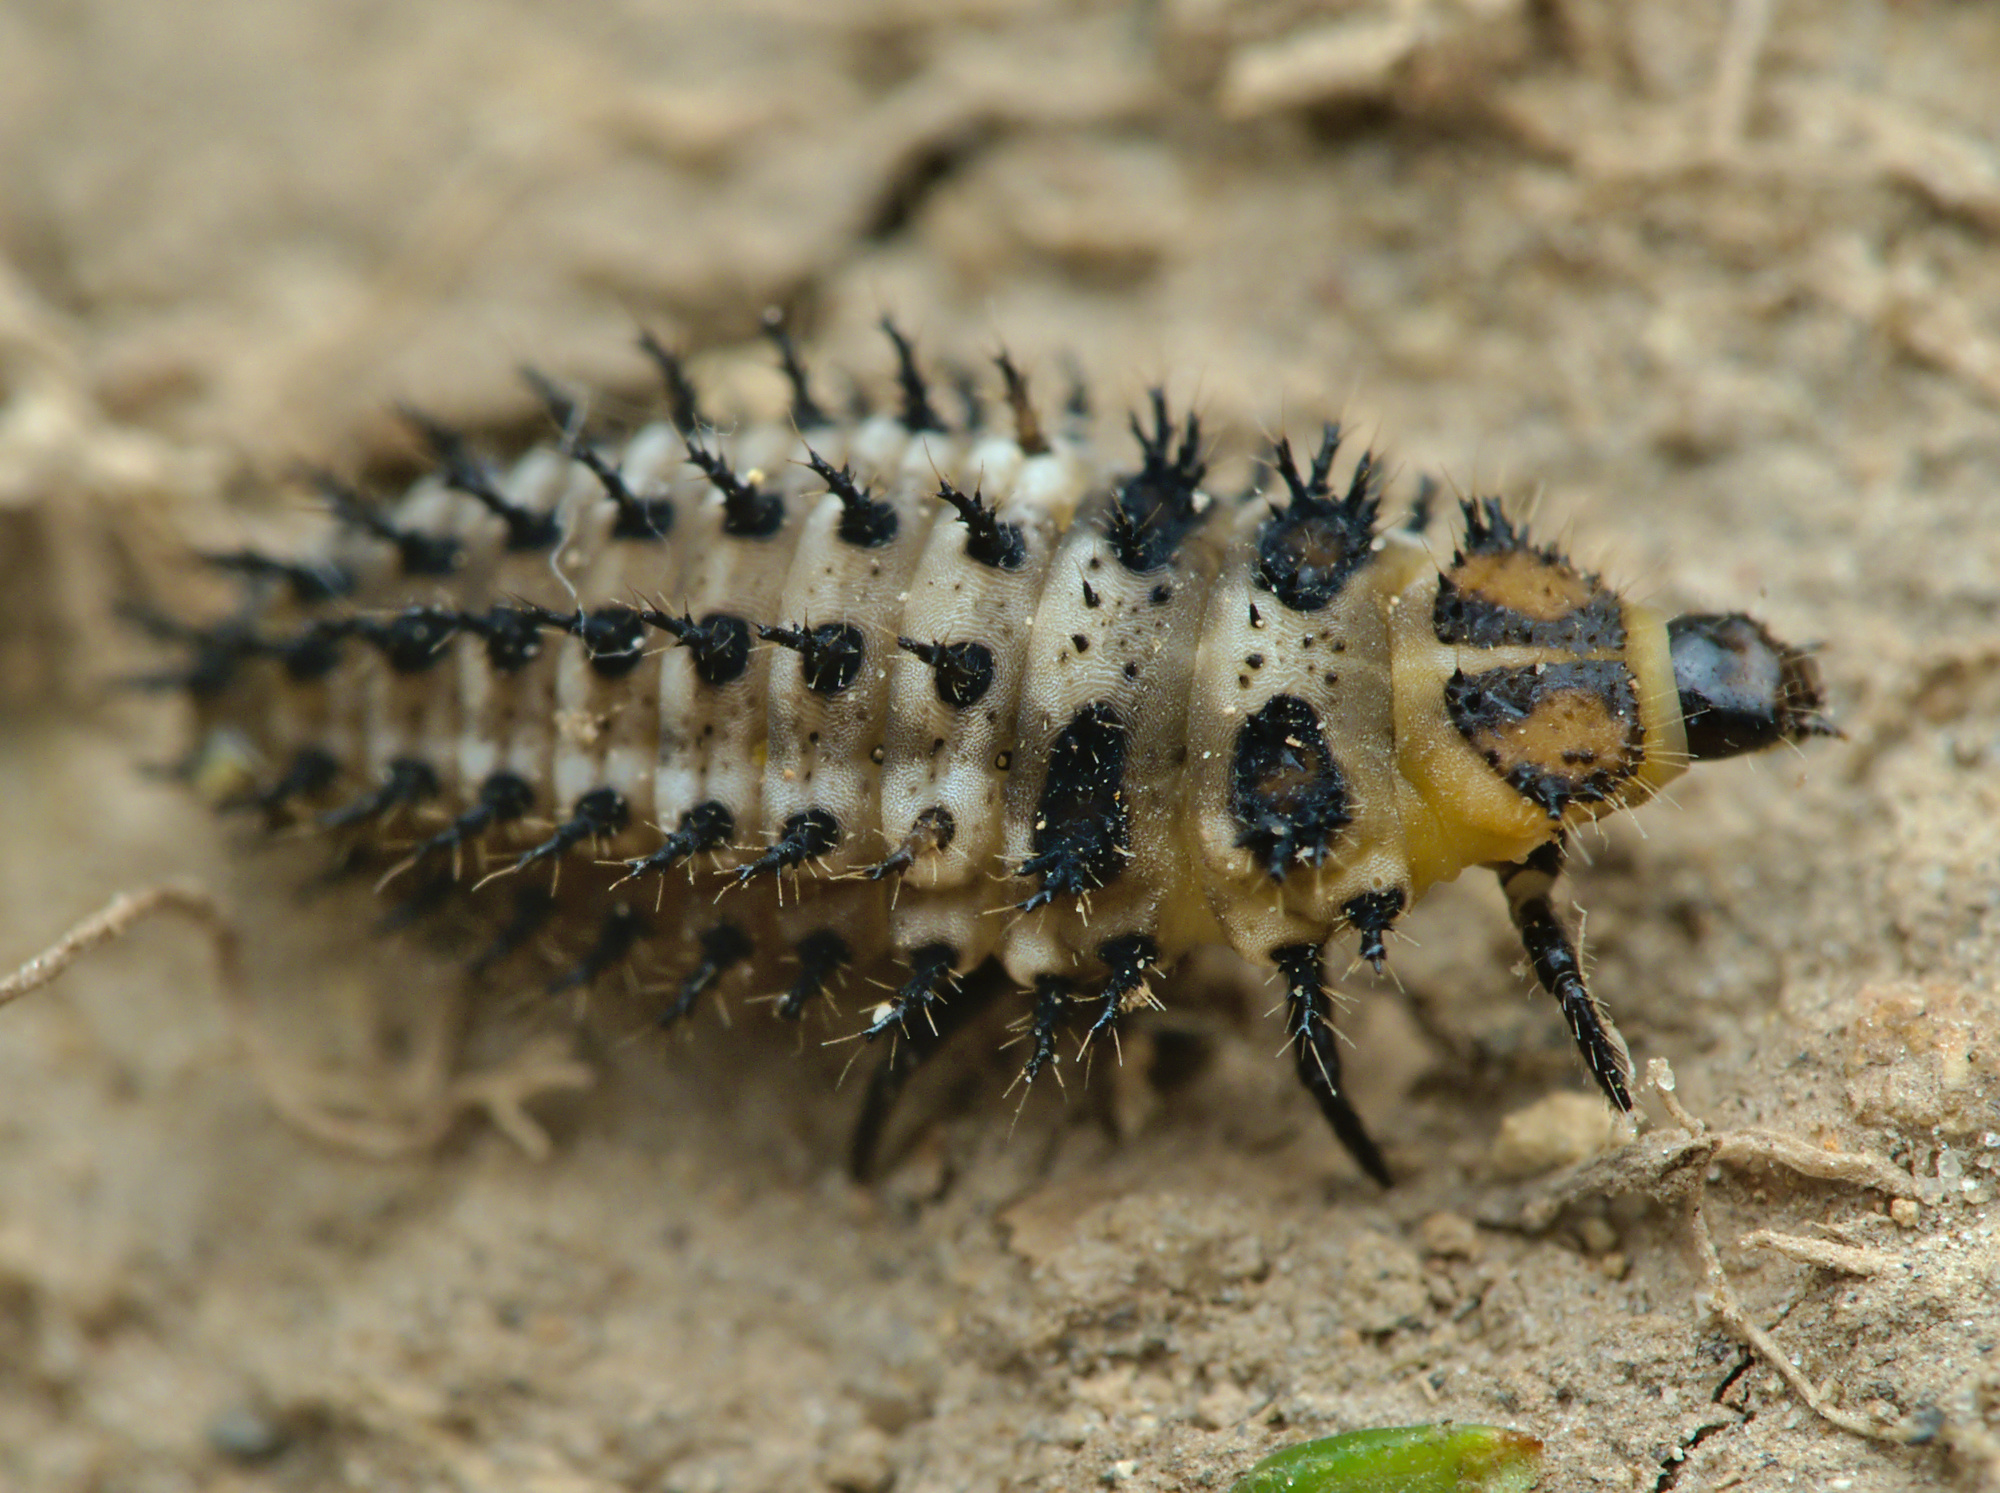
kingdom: Animalia
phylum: Arthropoda
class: Insecta
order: Coleoptera
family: Coccinellidae
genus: Parexochomus
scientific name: Parexochomus nigromaculatus
